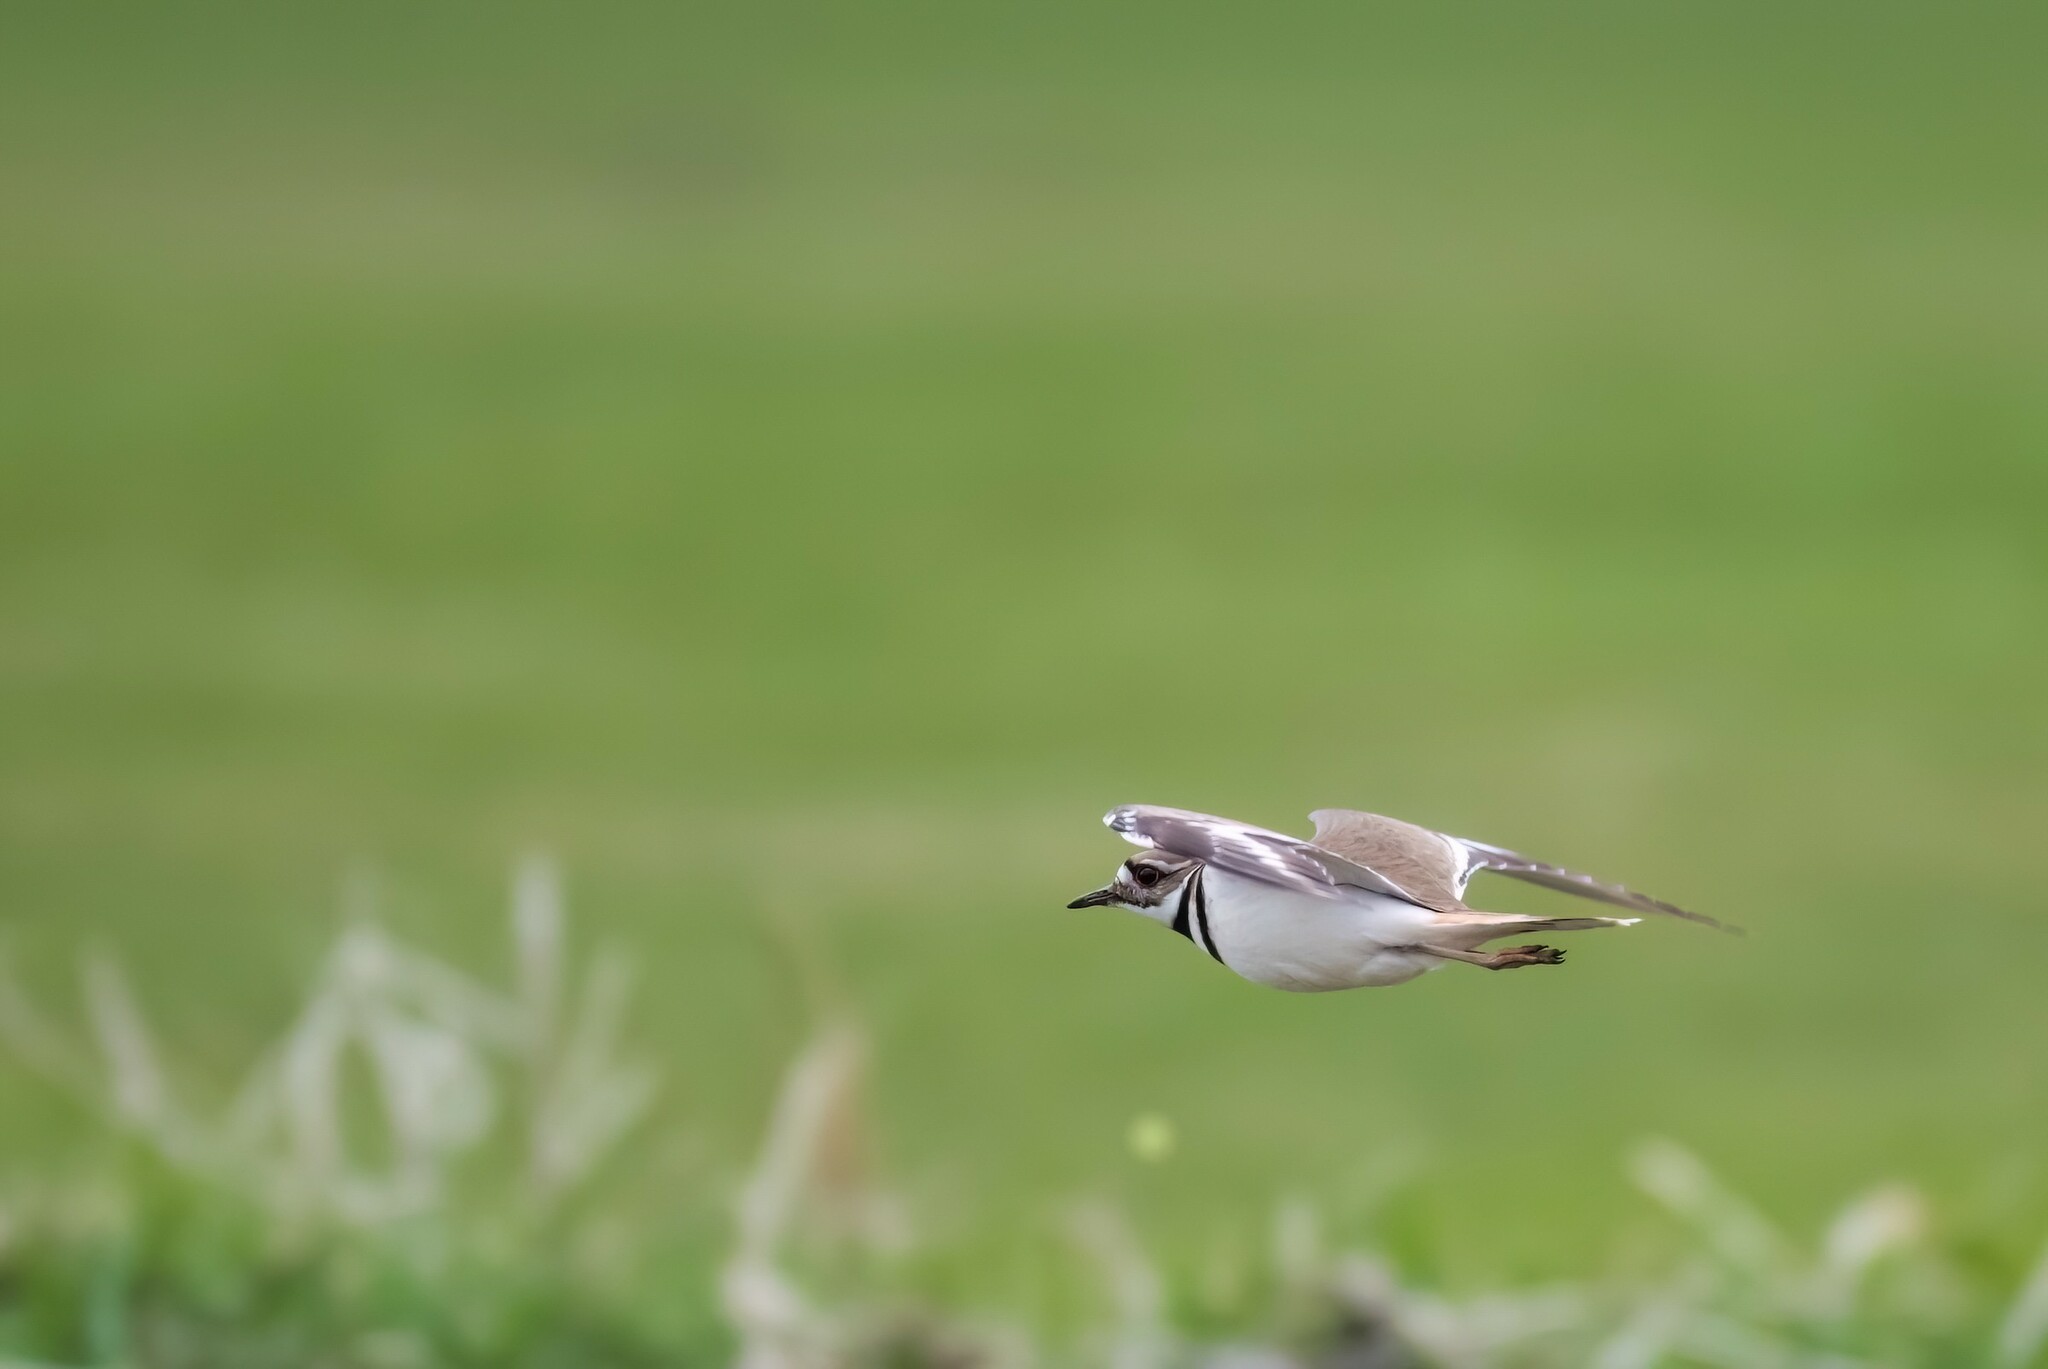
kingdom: Animalia
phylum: Chordata
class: Aves
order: Charadriiformes
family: Charadriidae
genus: Charadrius
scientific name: Charadrius vociferus
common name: Killdeer
